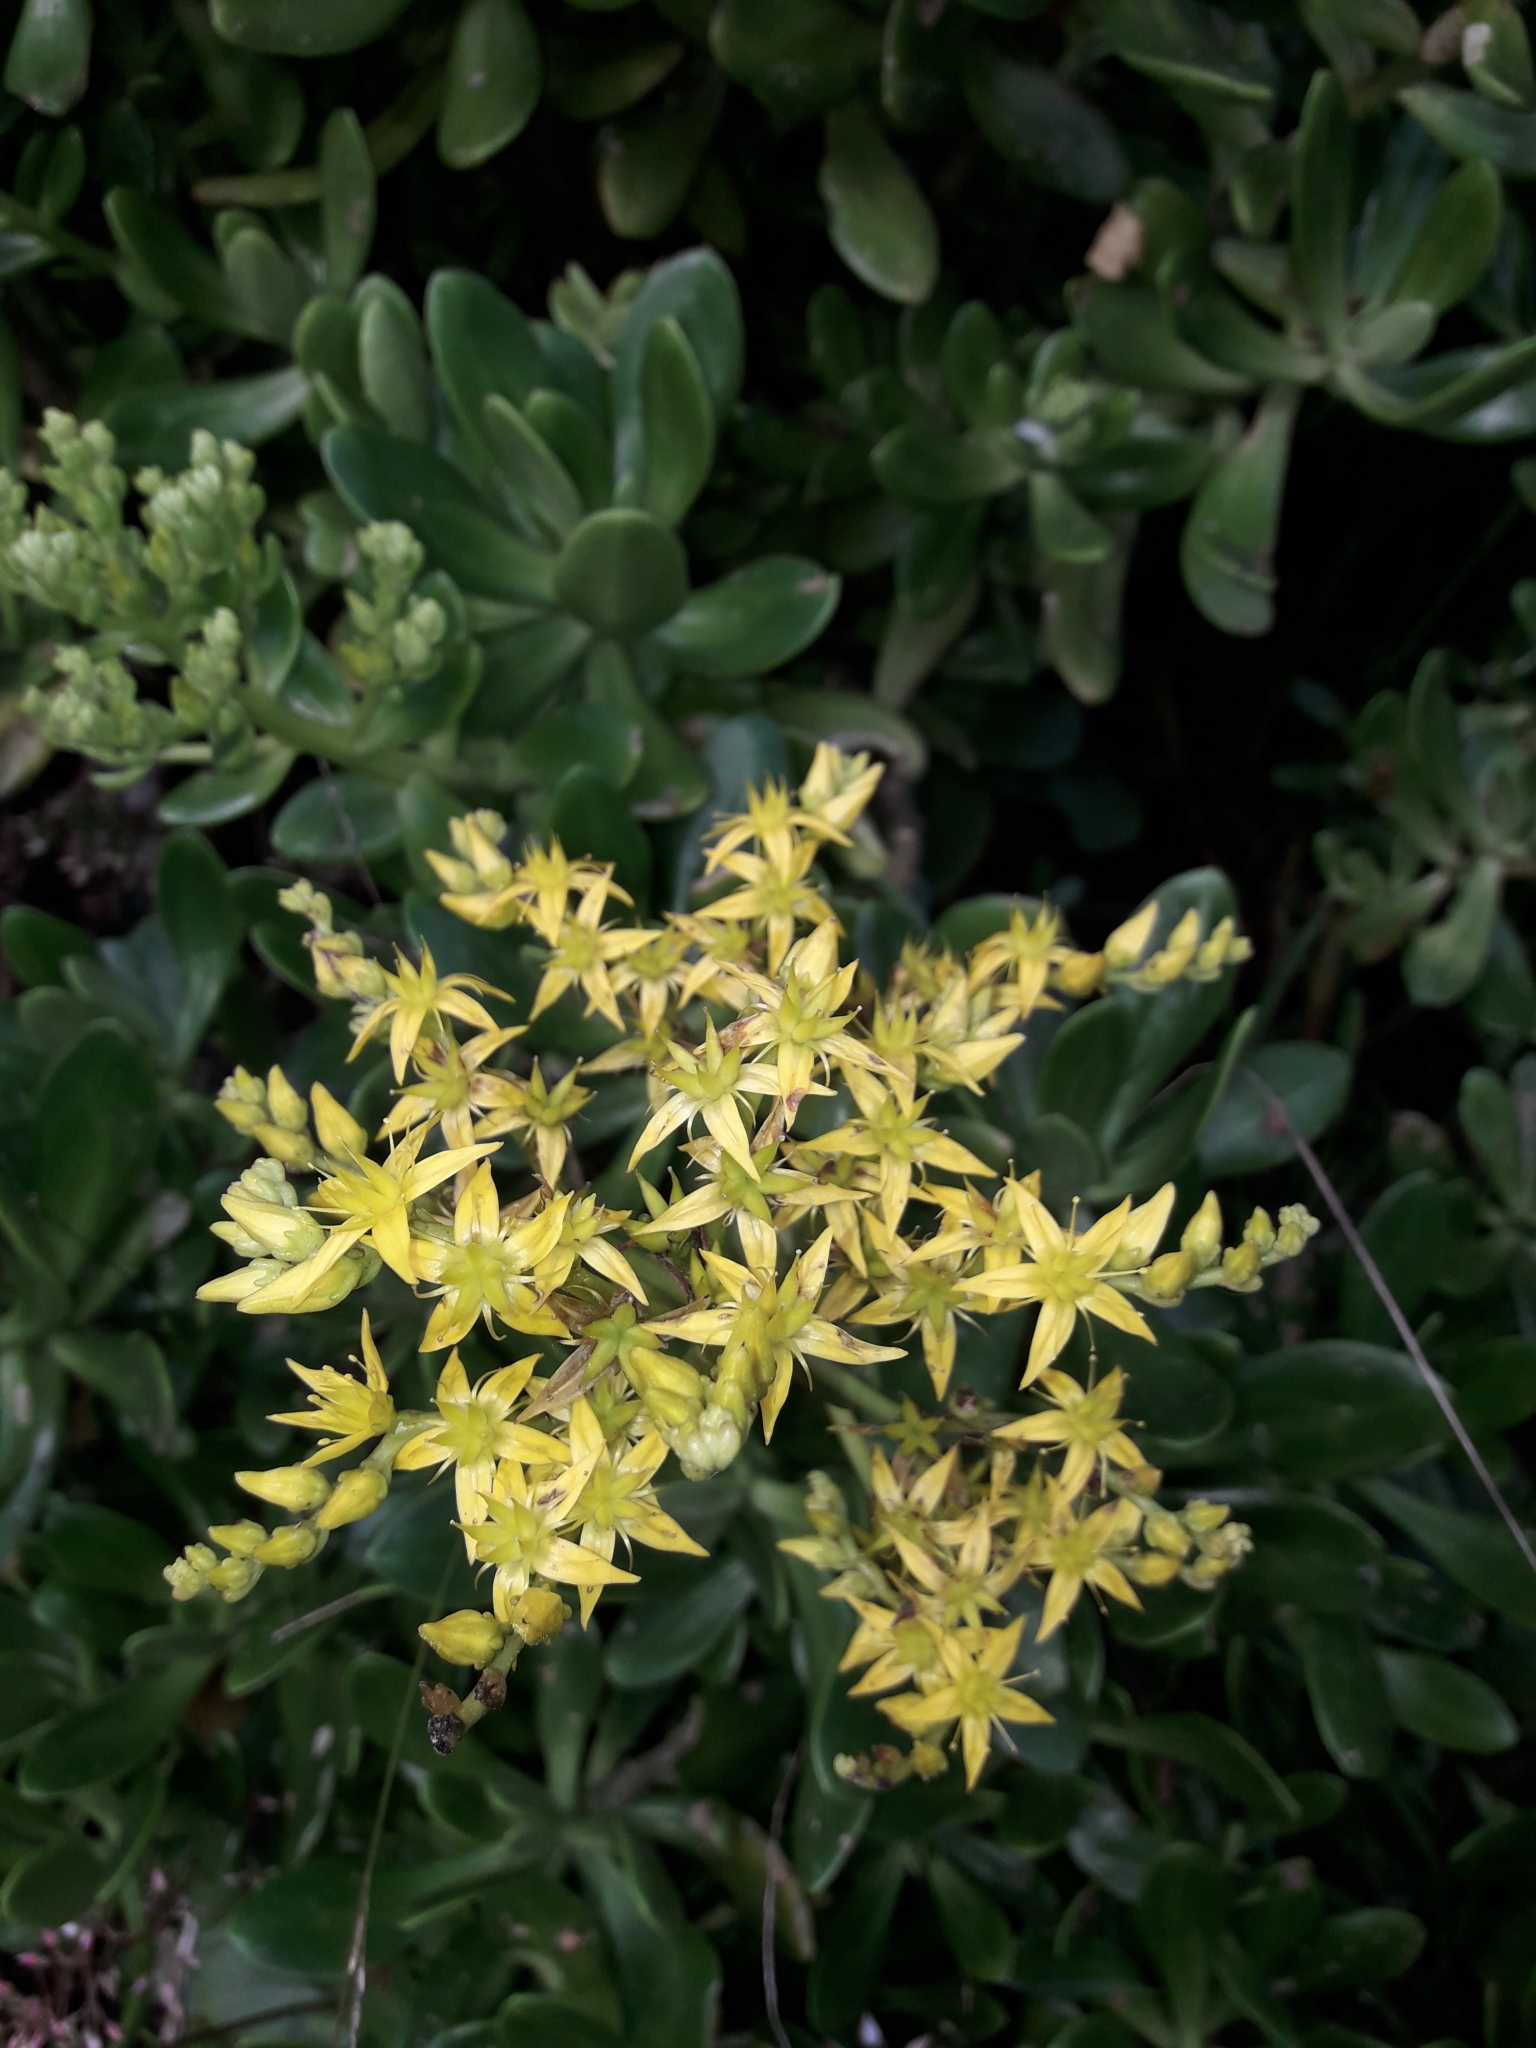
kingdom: Plantae
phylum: Tracheophyta
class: Magnoliopsida
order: Saxifragales
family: Crassulaceae
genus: Sedum
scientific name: Sedum praealtum
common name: Greater mexican-stonecrop
